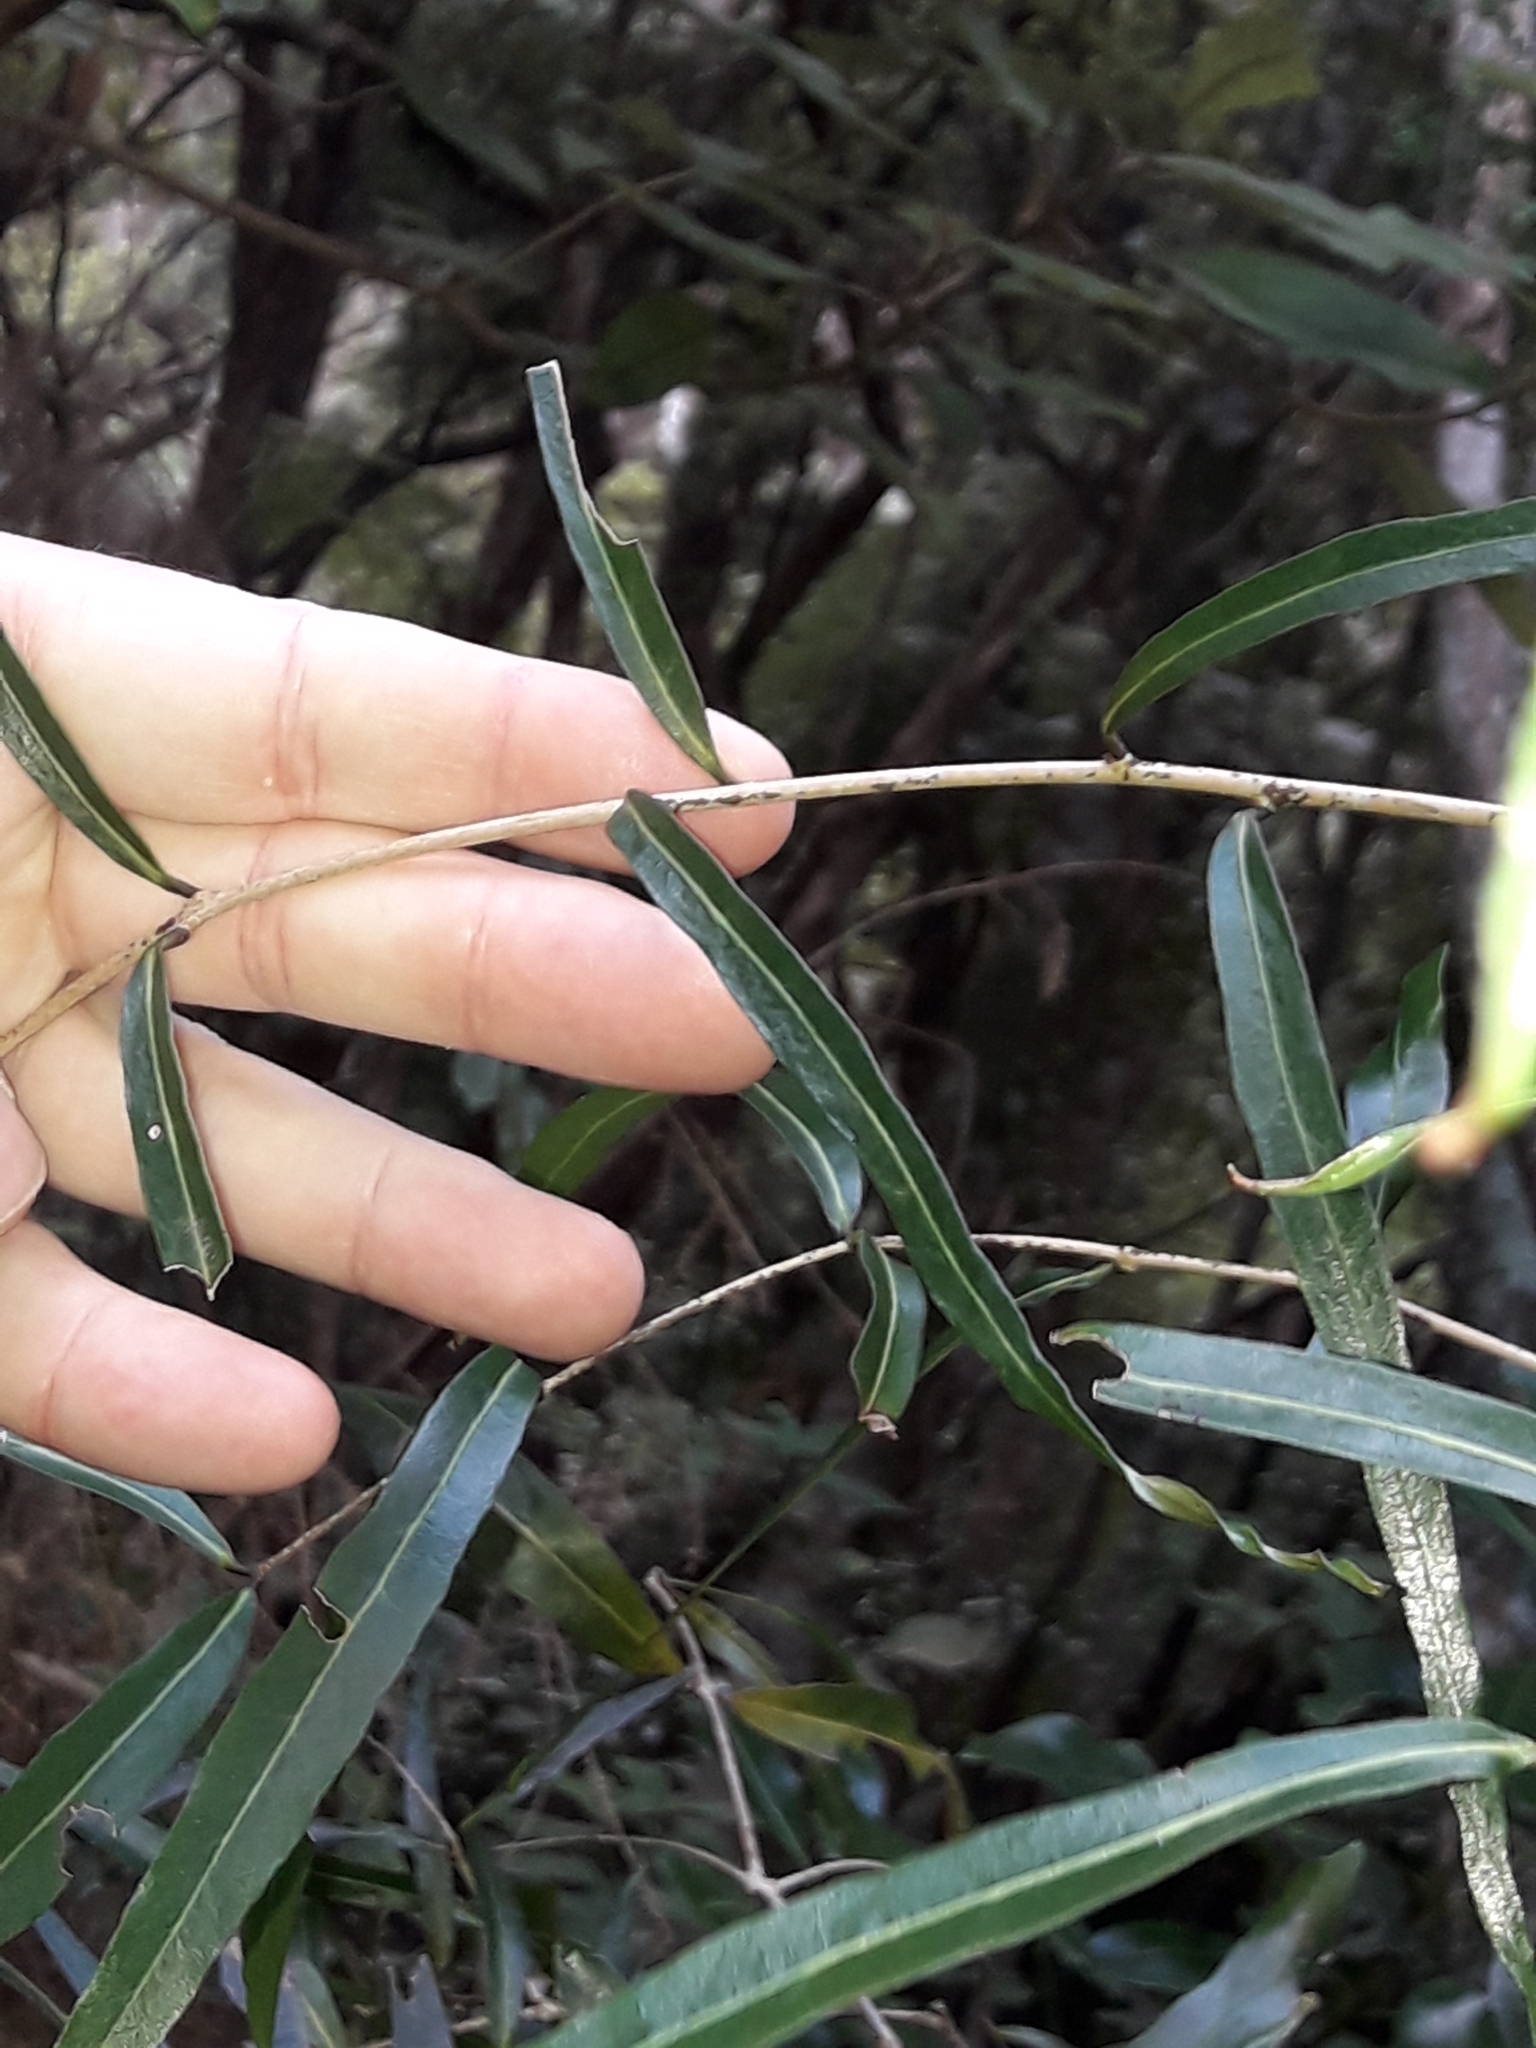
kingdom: Plantae
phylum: Tracheophyta
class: Magnoliopsida
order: Santalales
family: Nanodeaceae
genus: Mida
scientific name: Mida salicifolia
